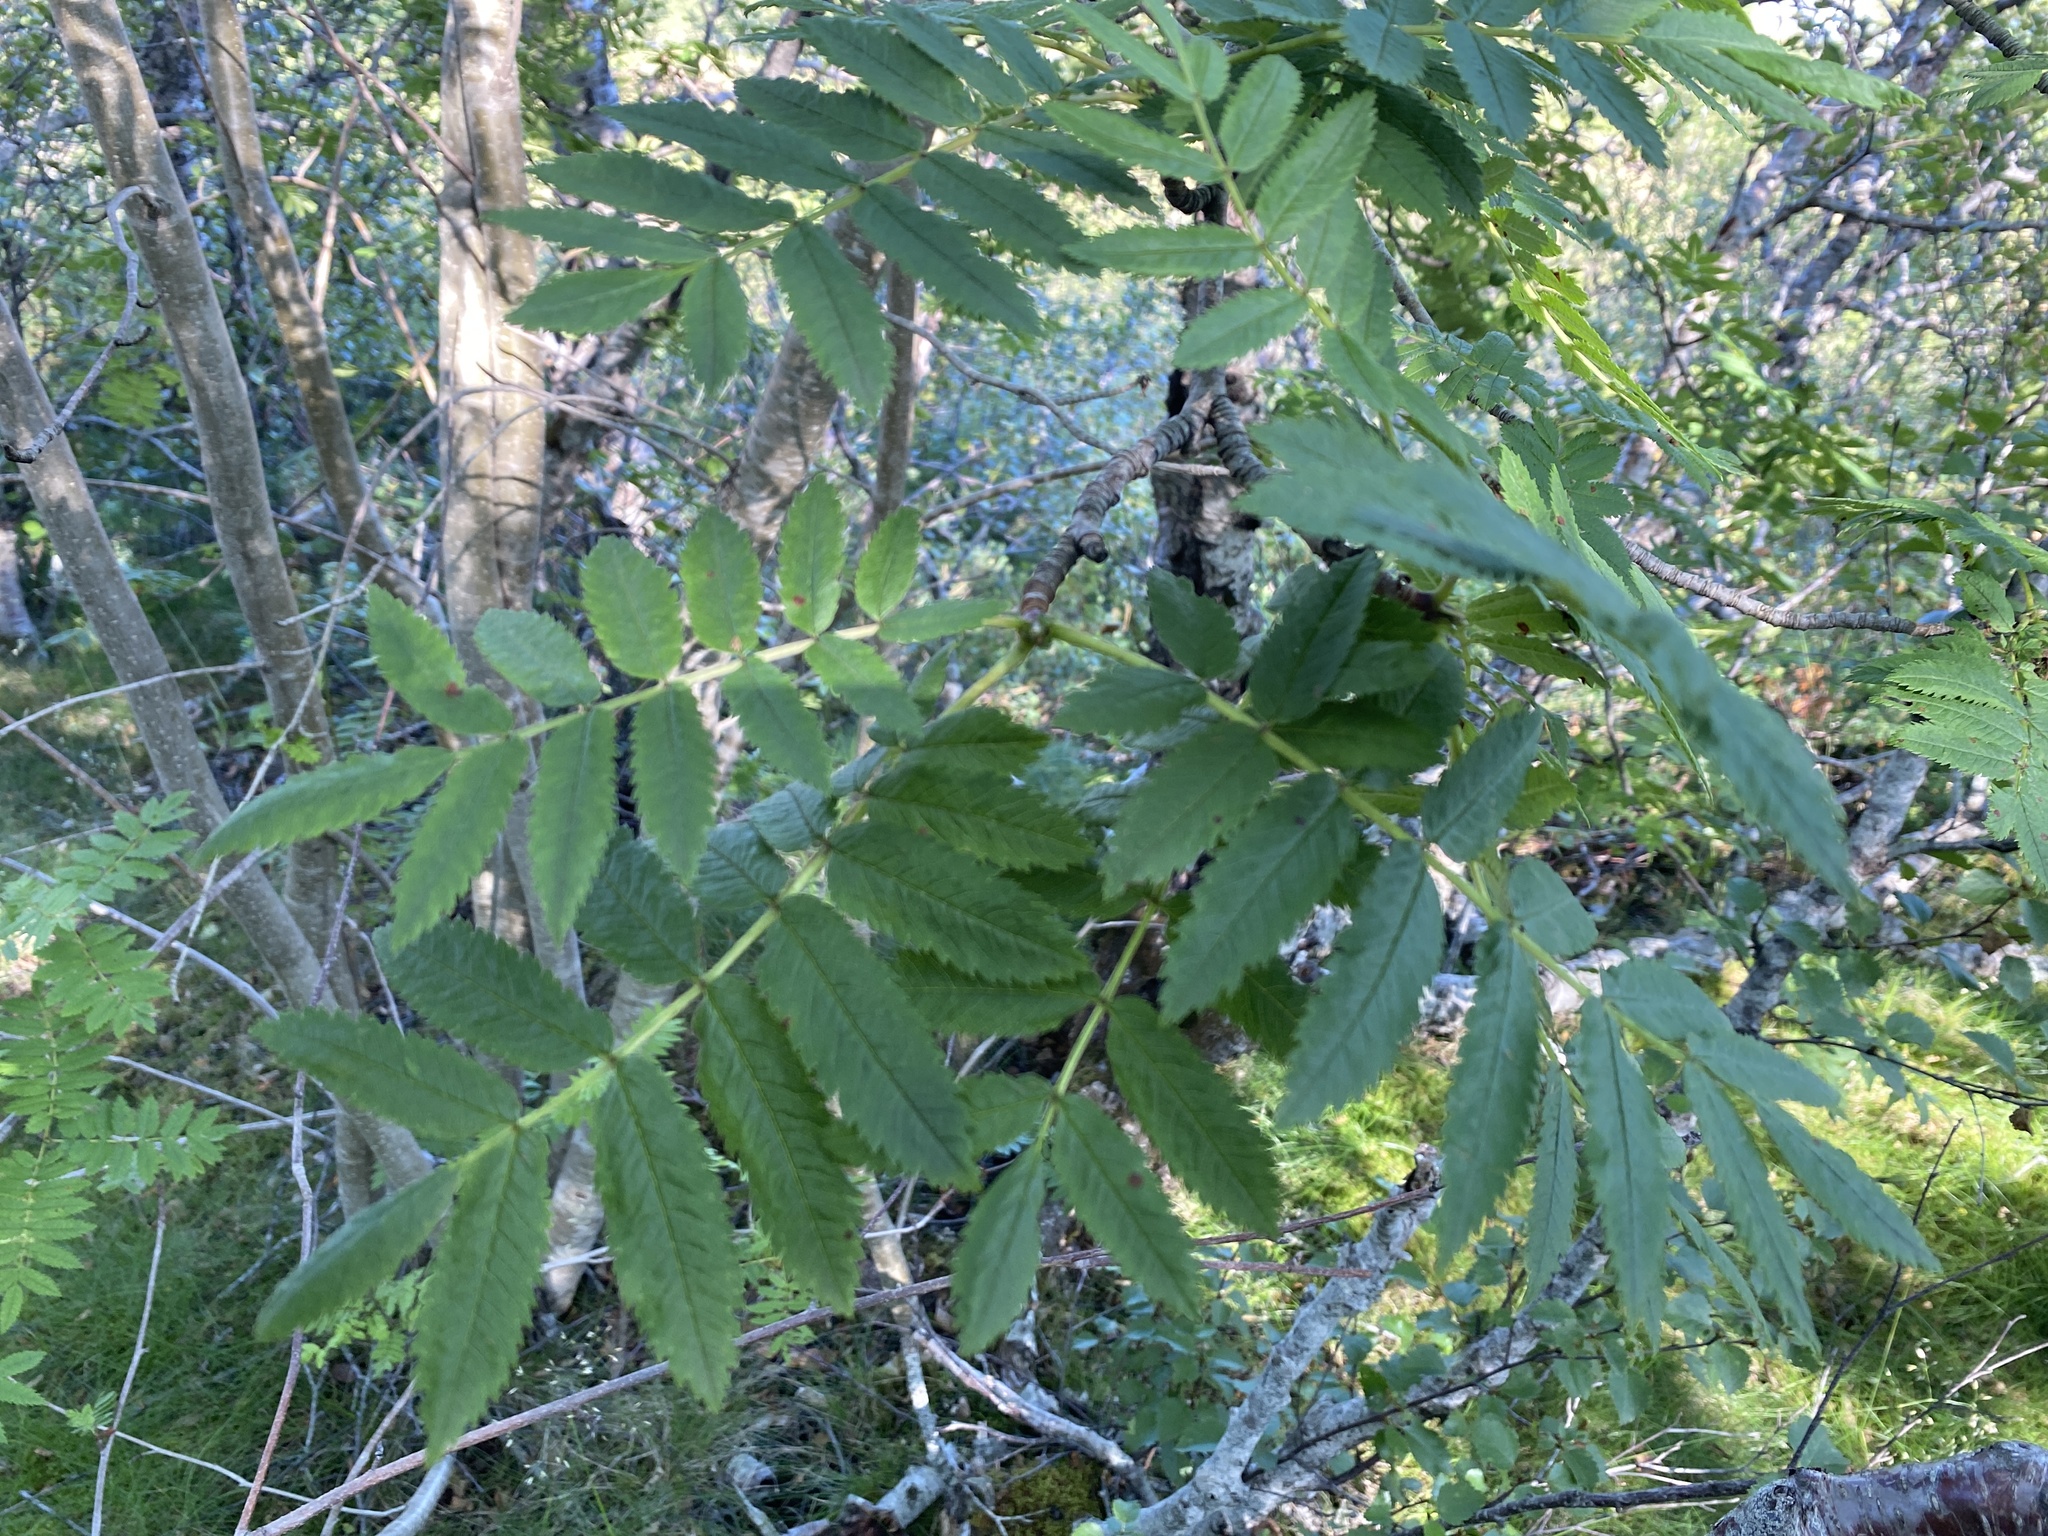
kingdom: Plantae
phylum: Tracheophyta
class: Magnoliopsida
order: Rosales
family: Rosaceae
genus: Sorbus
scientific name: Sorbus aucuparia
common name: Rowan
